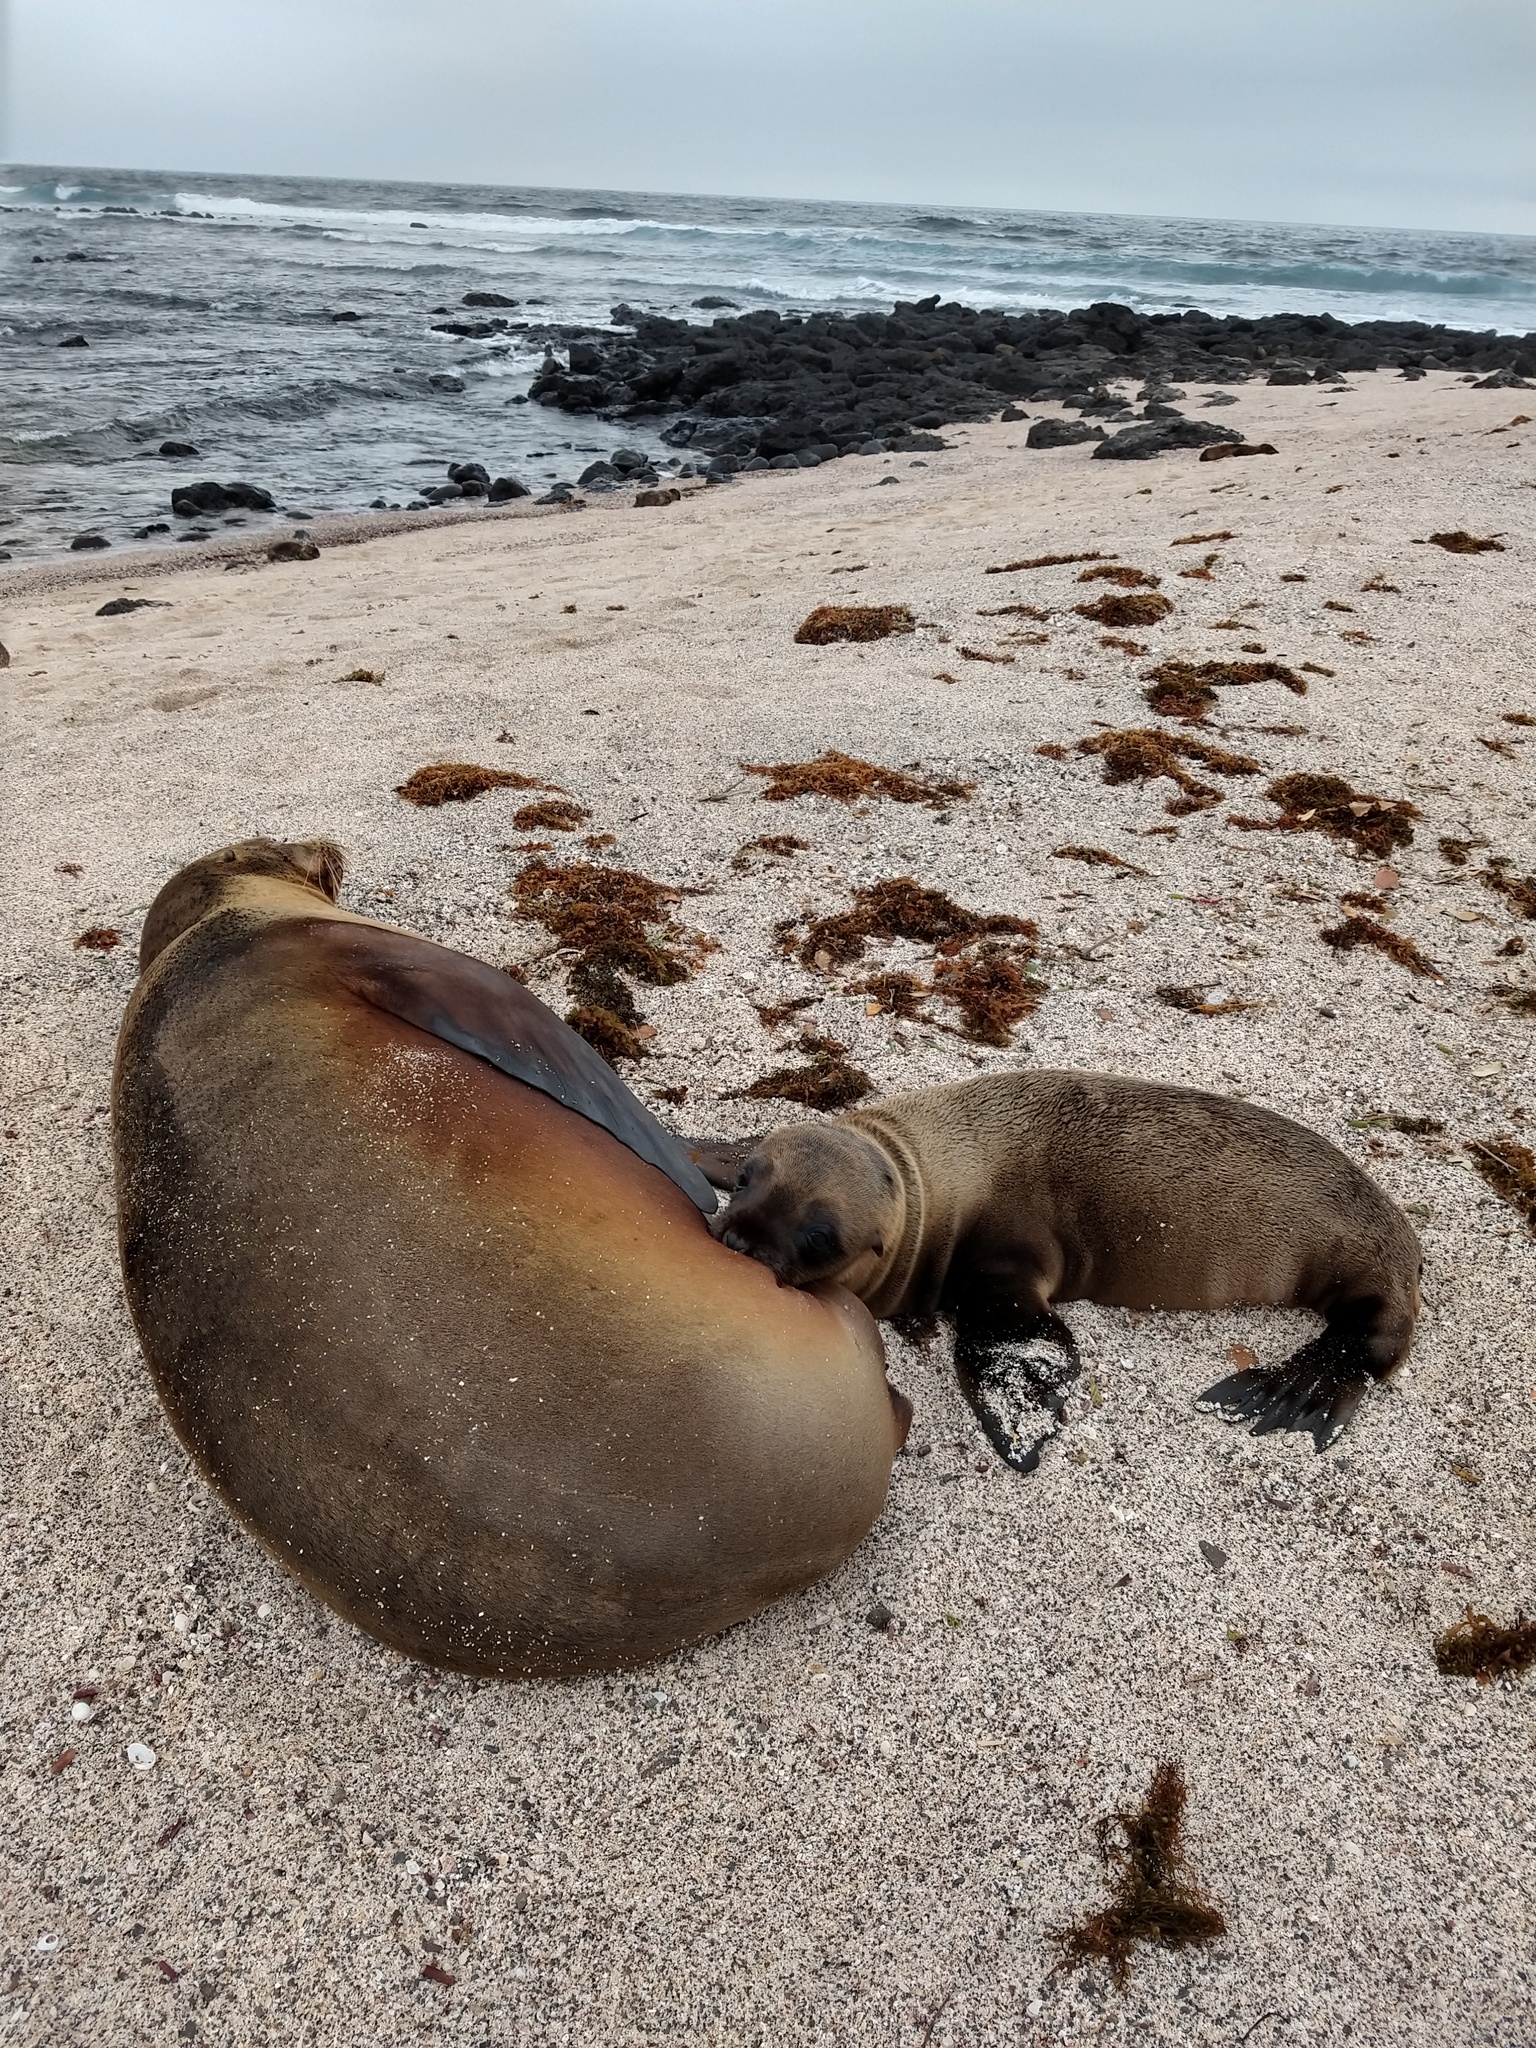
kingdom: Animalia
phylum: Chordata
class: Mammalia
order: Carnivora
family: Otariidae
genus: Zalophus
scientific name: Zalophus wollebaeki
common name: Galapagos sea lion
